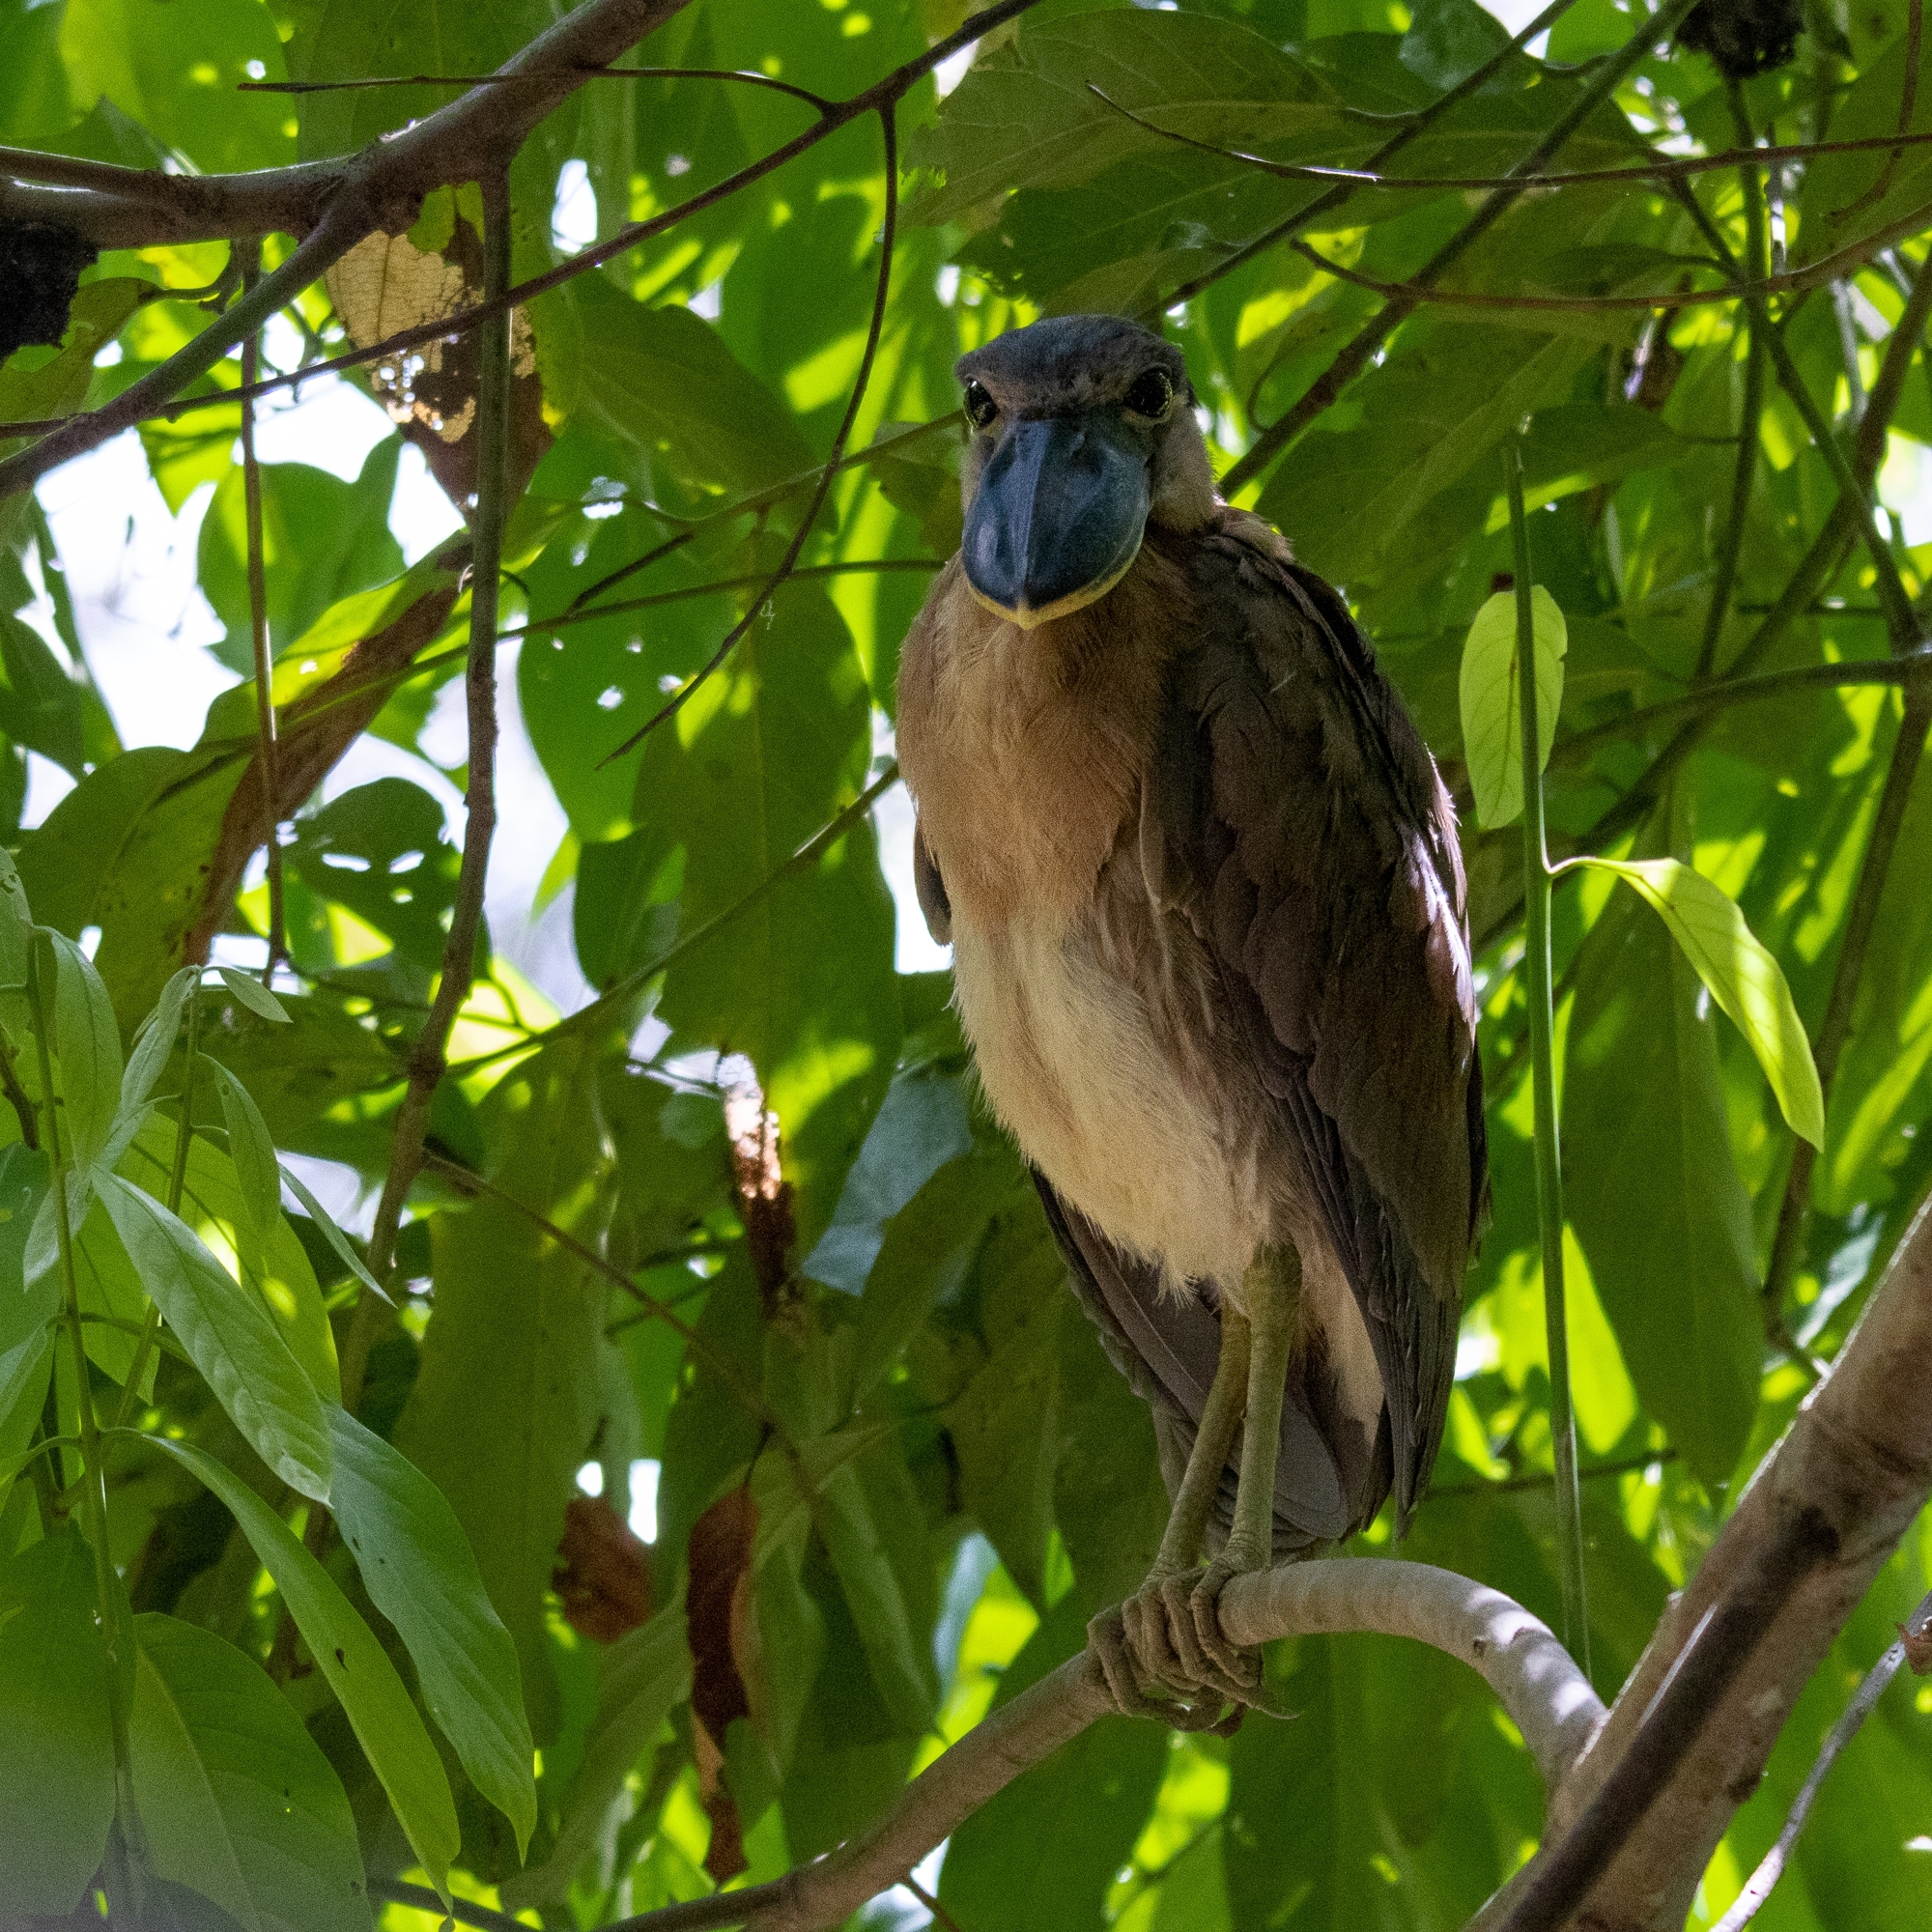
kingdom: Animalia
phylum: Chordata
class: Aves
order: Pelecaniformes
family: Ardeidae
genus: Cochlearius
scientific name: Cochlearius cochlearius
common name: Boat-billed heron
